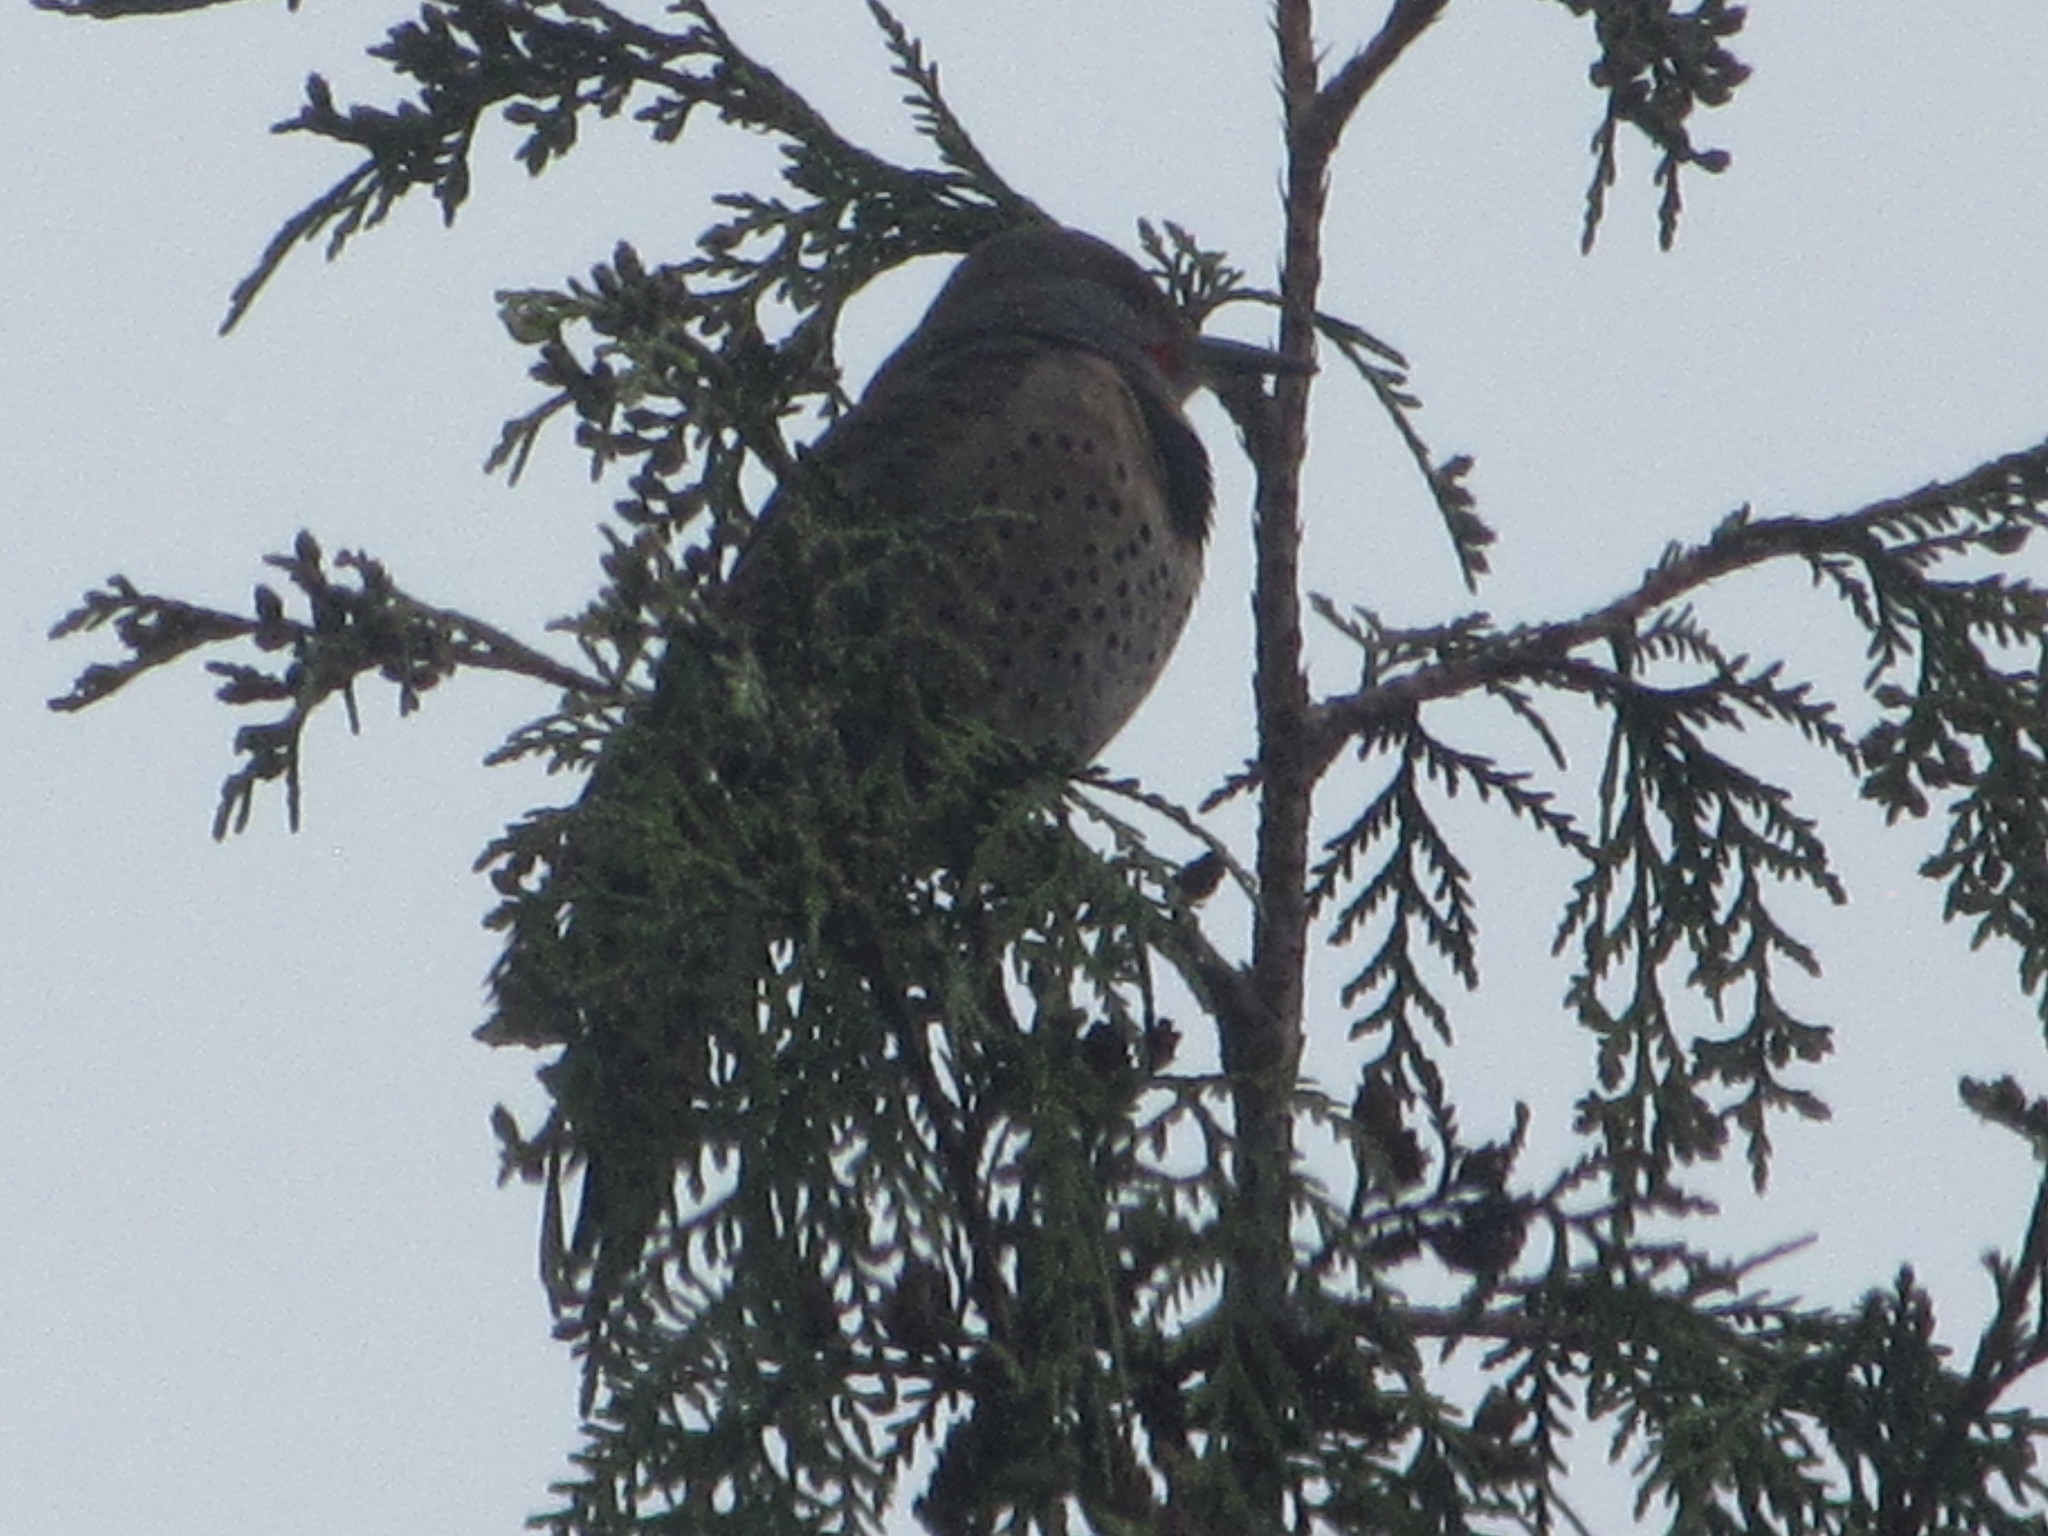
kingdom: Animalia
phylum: Chordata
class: Aves
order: Piciformes
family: Picidae
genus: Colaptes
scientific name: Colaptes auratus
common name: Northern flicker
